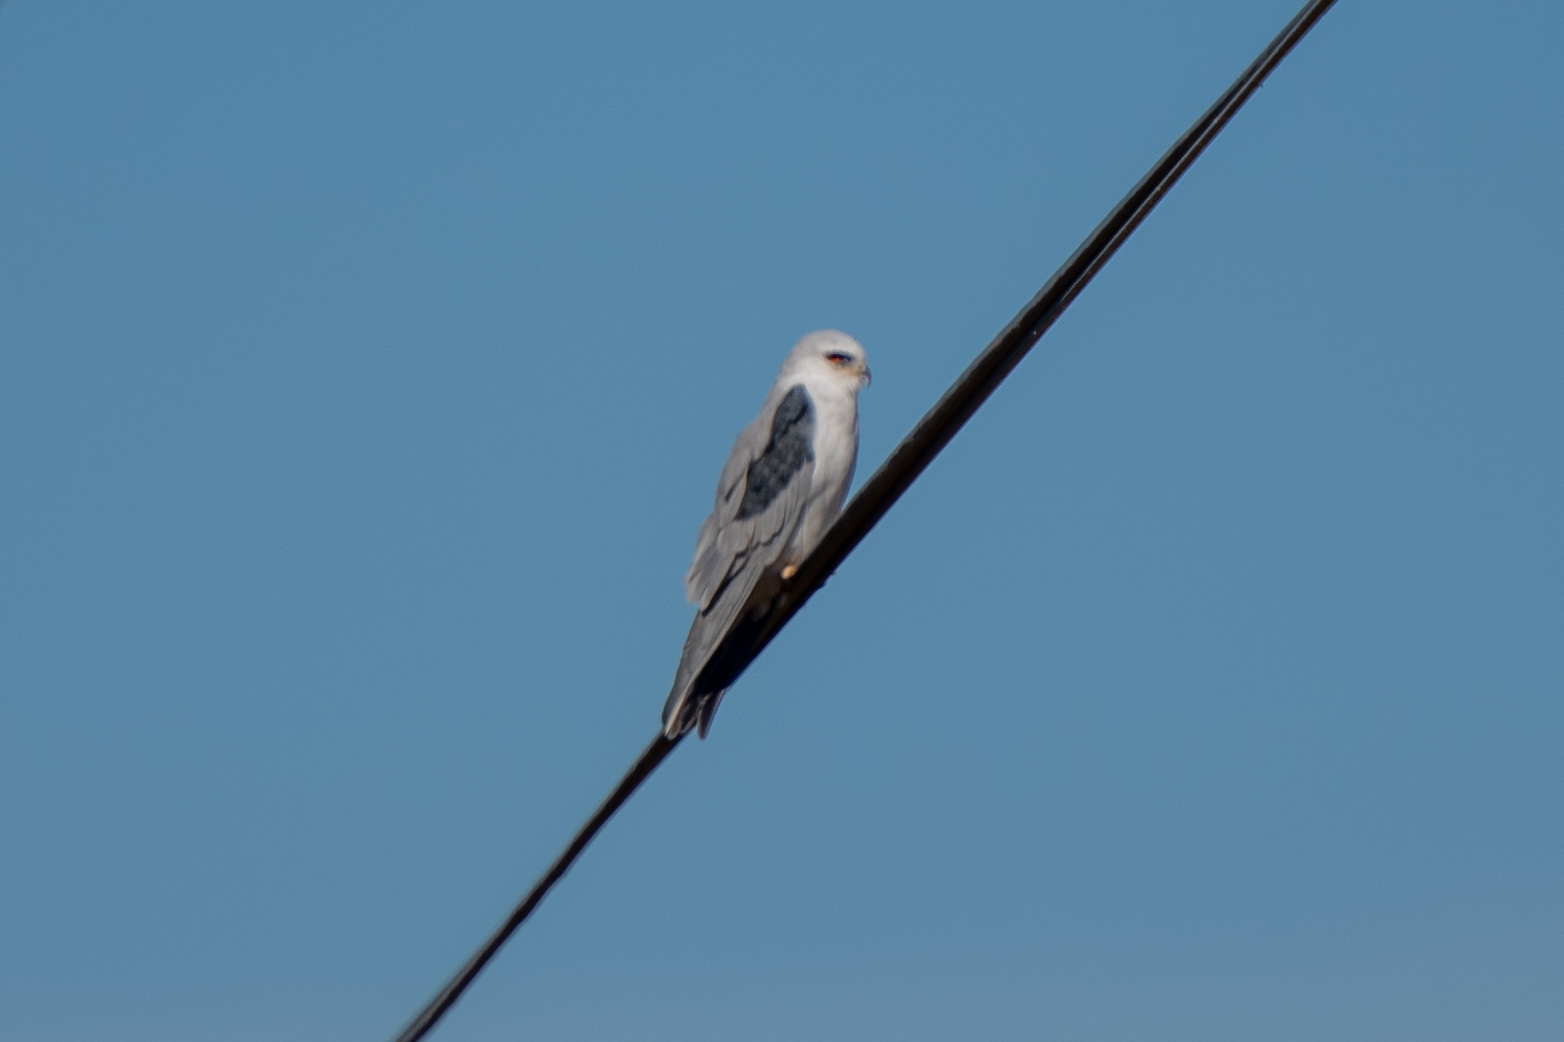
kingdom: Animalia
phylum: Chordata
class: Aves
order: Accipitriformes
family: Accipitridae
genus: Elanus
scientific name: Elanus leucurus
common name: White-tailed kite
